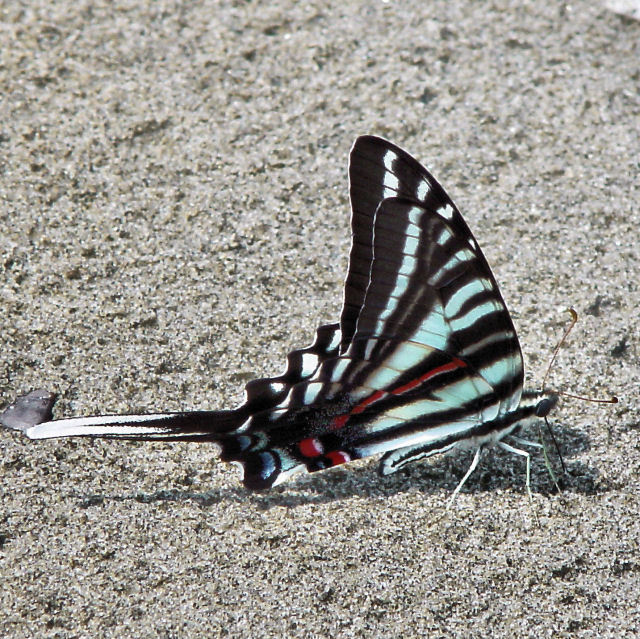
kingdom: Animalia
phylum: Arthropoda
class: Insecta
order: Lepidoptera
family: Papilionidae
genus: Protographium
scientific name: Protographium marcellus
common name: Zebra swallowtail
